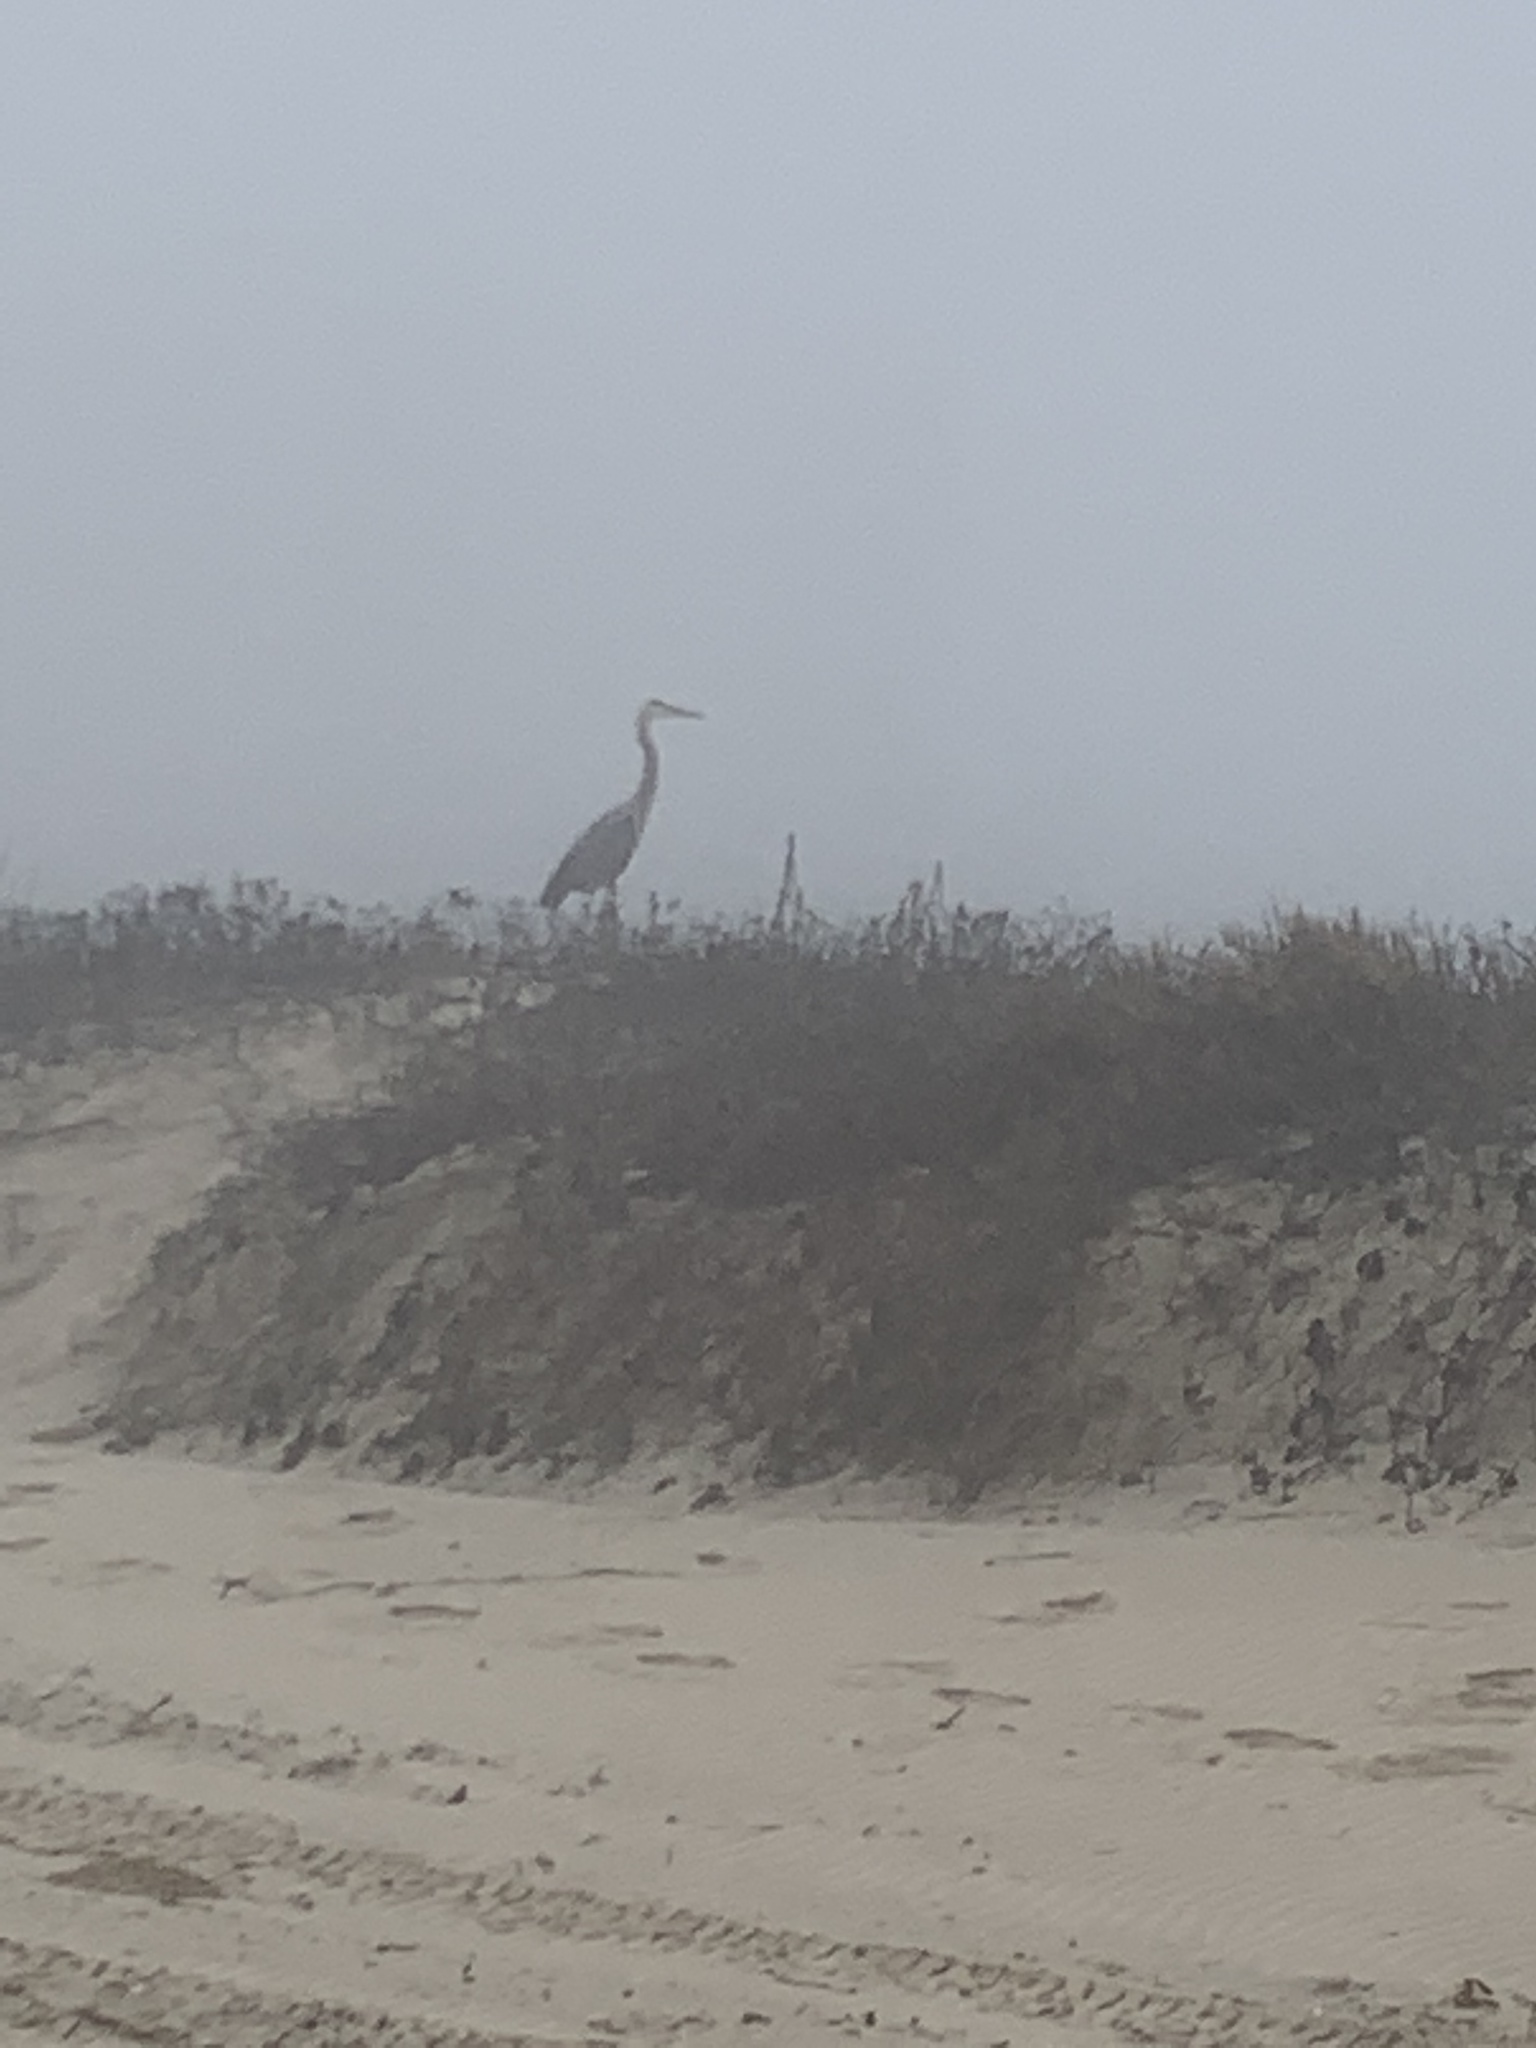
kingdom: Animalia
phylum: Chordata
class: Aves
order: Pelecaniformes
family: Ardeidae
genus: Ardea
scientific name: Ardea herodias
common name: Great blue heron
